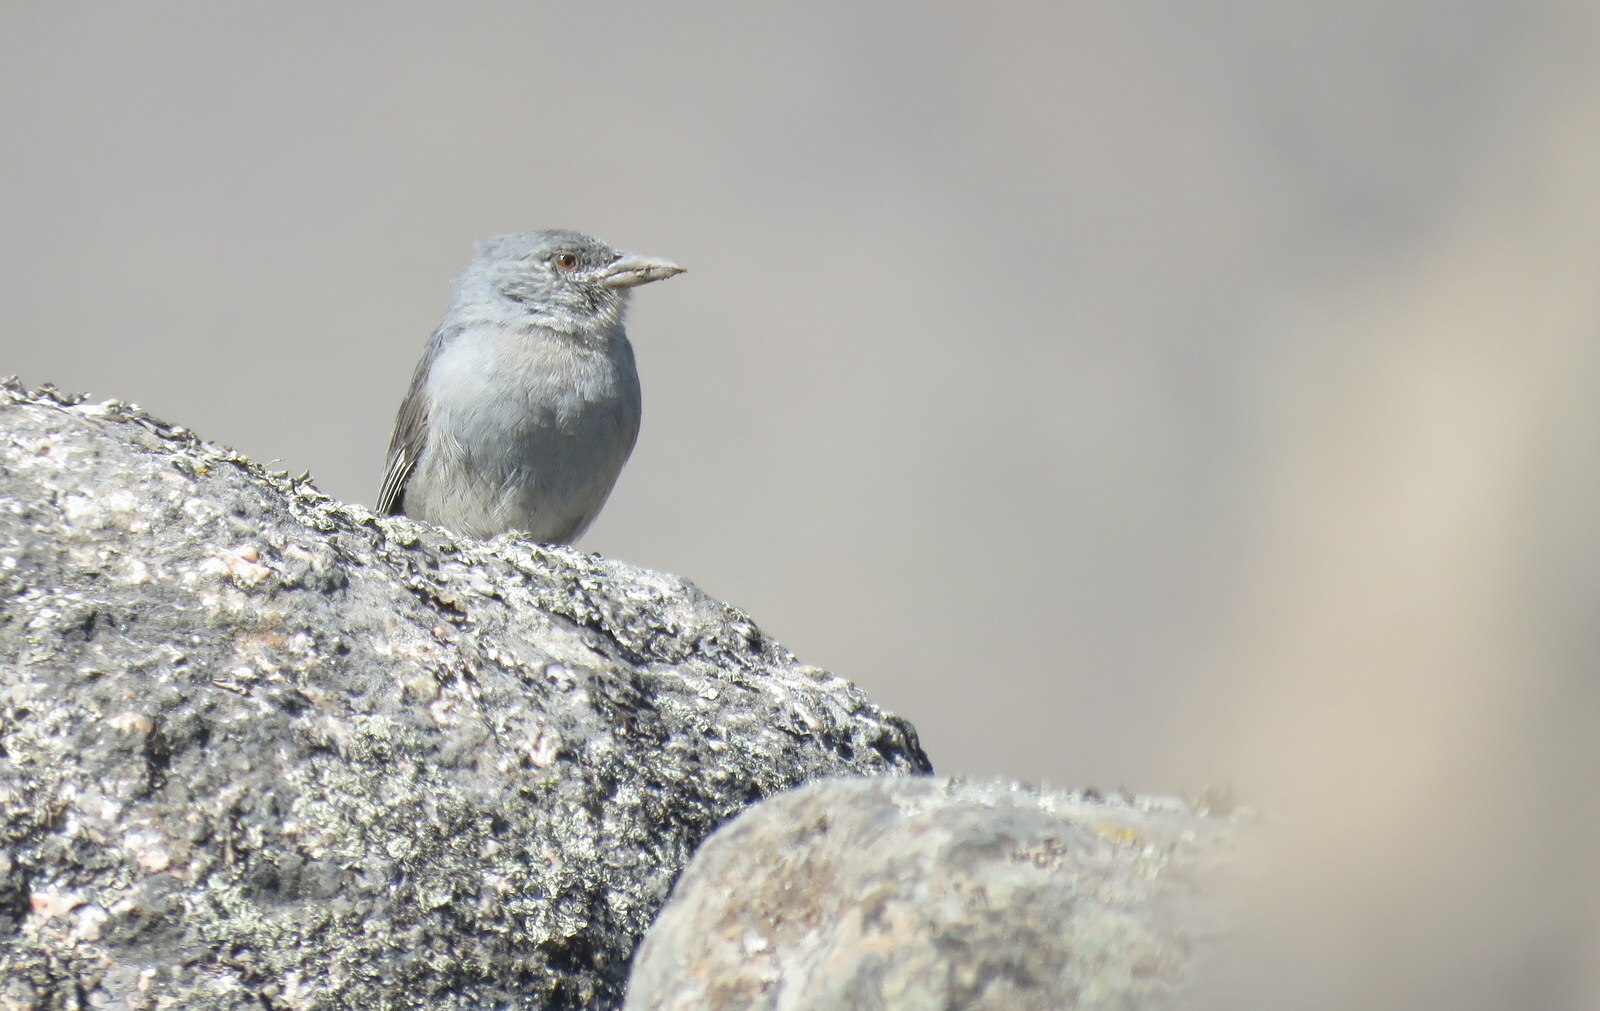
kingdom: Animalia
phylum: Chordata
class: Aves
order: Passeriformes
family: Thraupidae
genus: Idiopsar
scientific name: Idiopsar brachyurus
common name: Short-tailed finch
